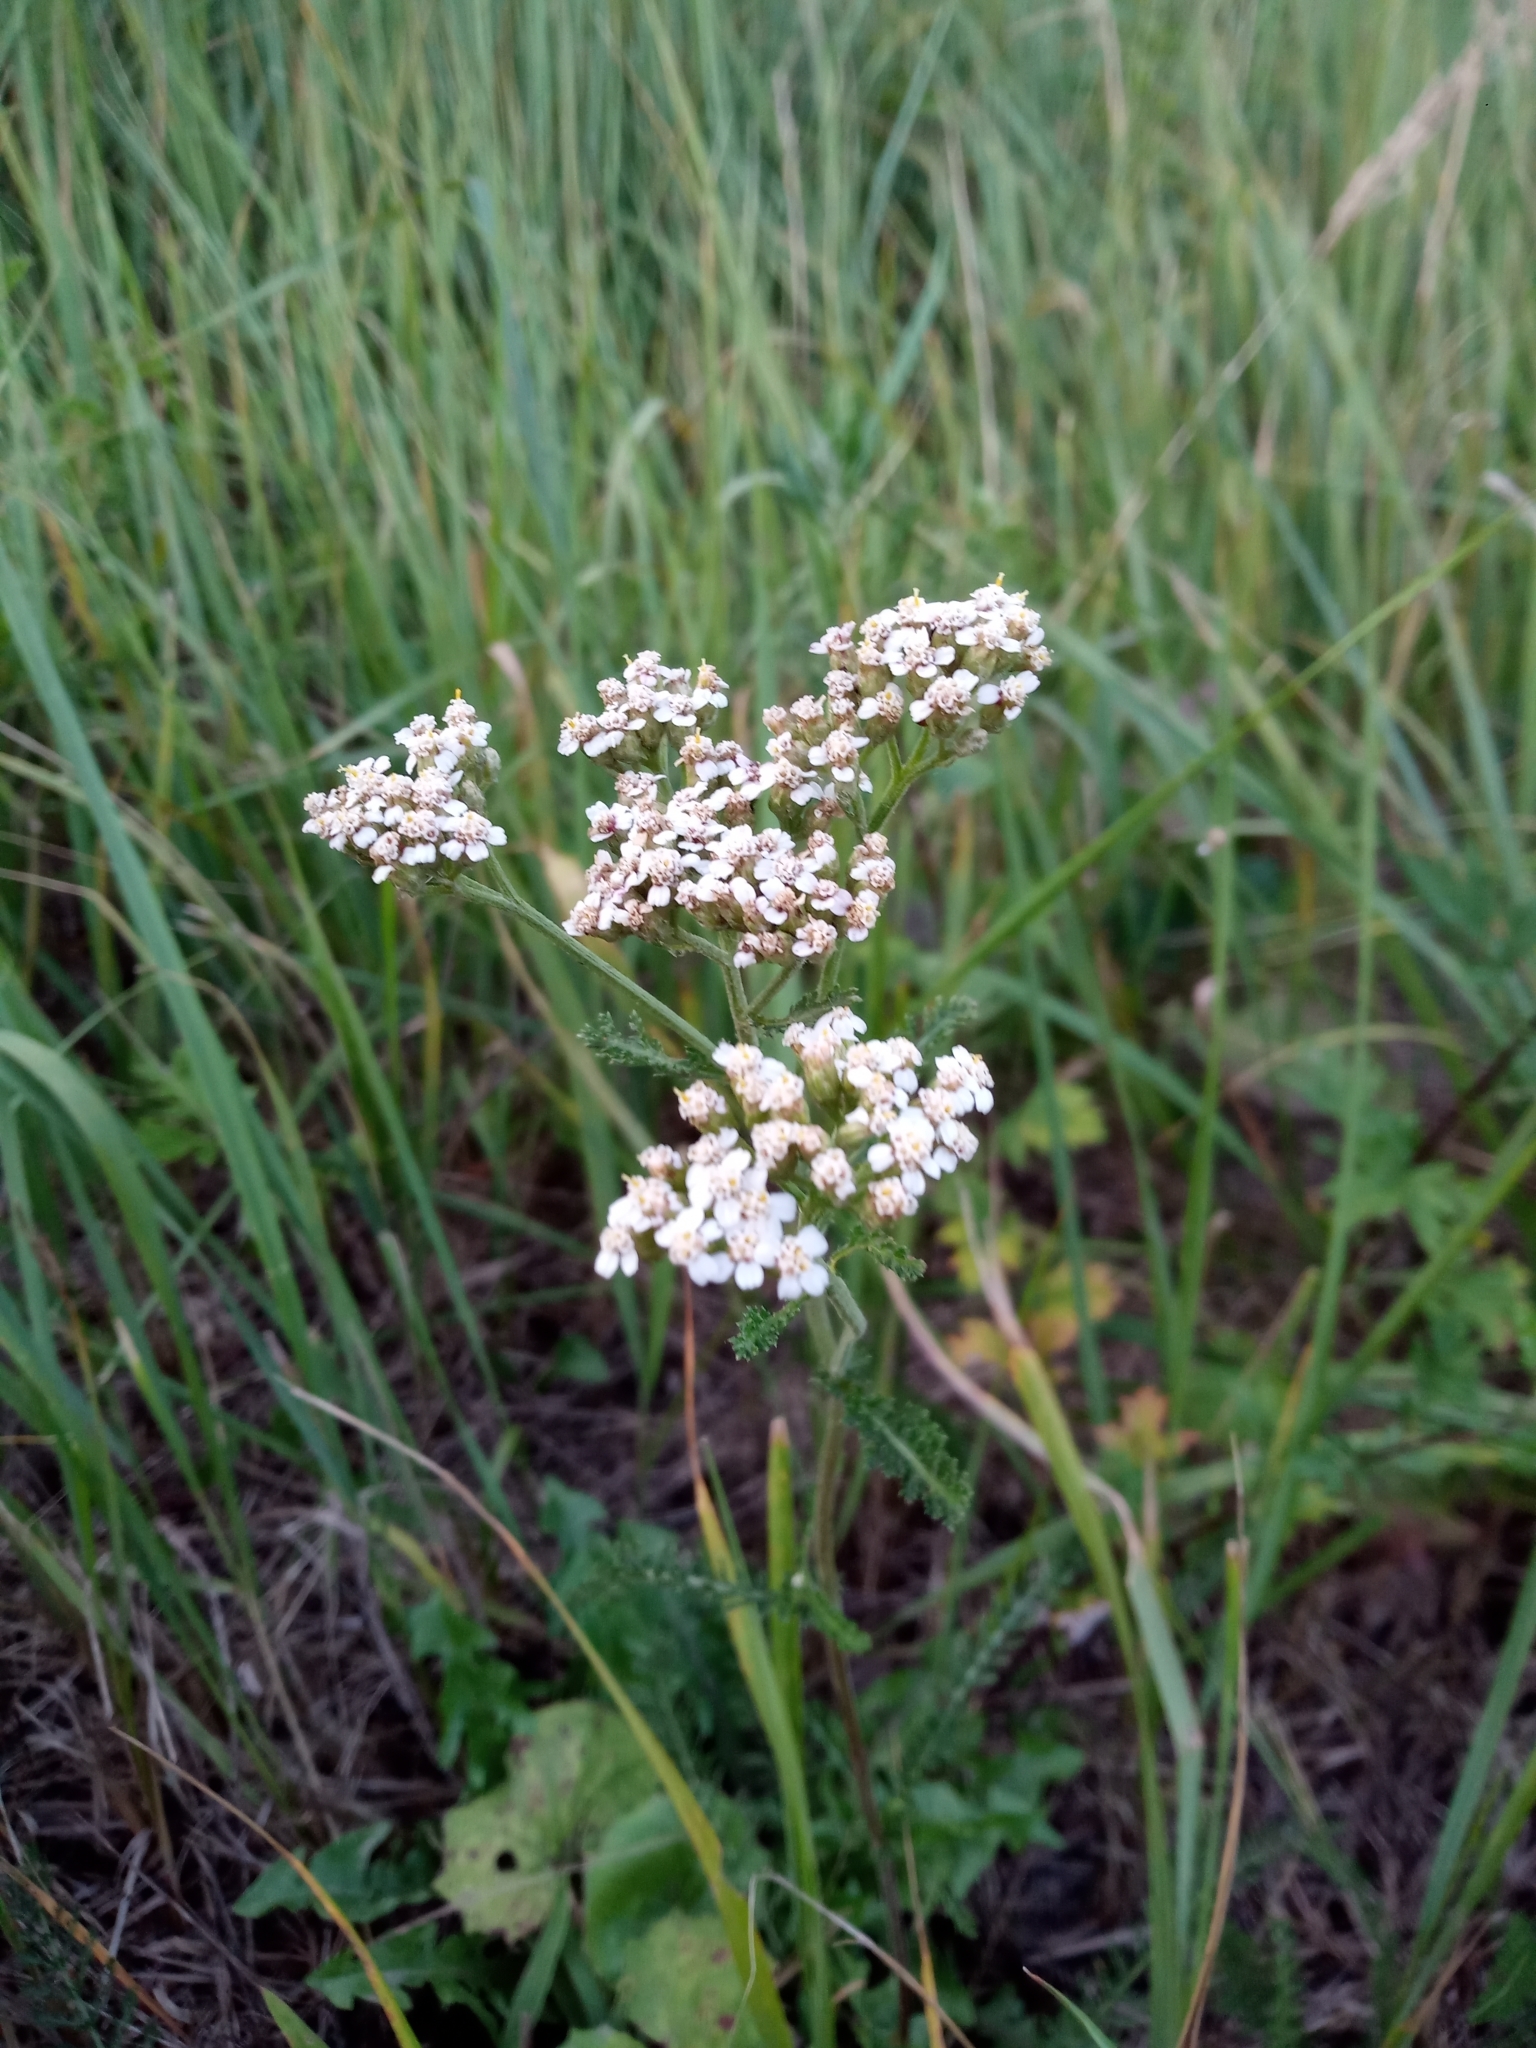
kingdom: Plantae
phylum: Tracheophyta
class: Magnoliopsida
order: Asterales
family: Asteraceae
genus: Achillea
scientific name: Achillea millefolium
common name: Yarrow
